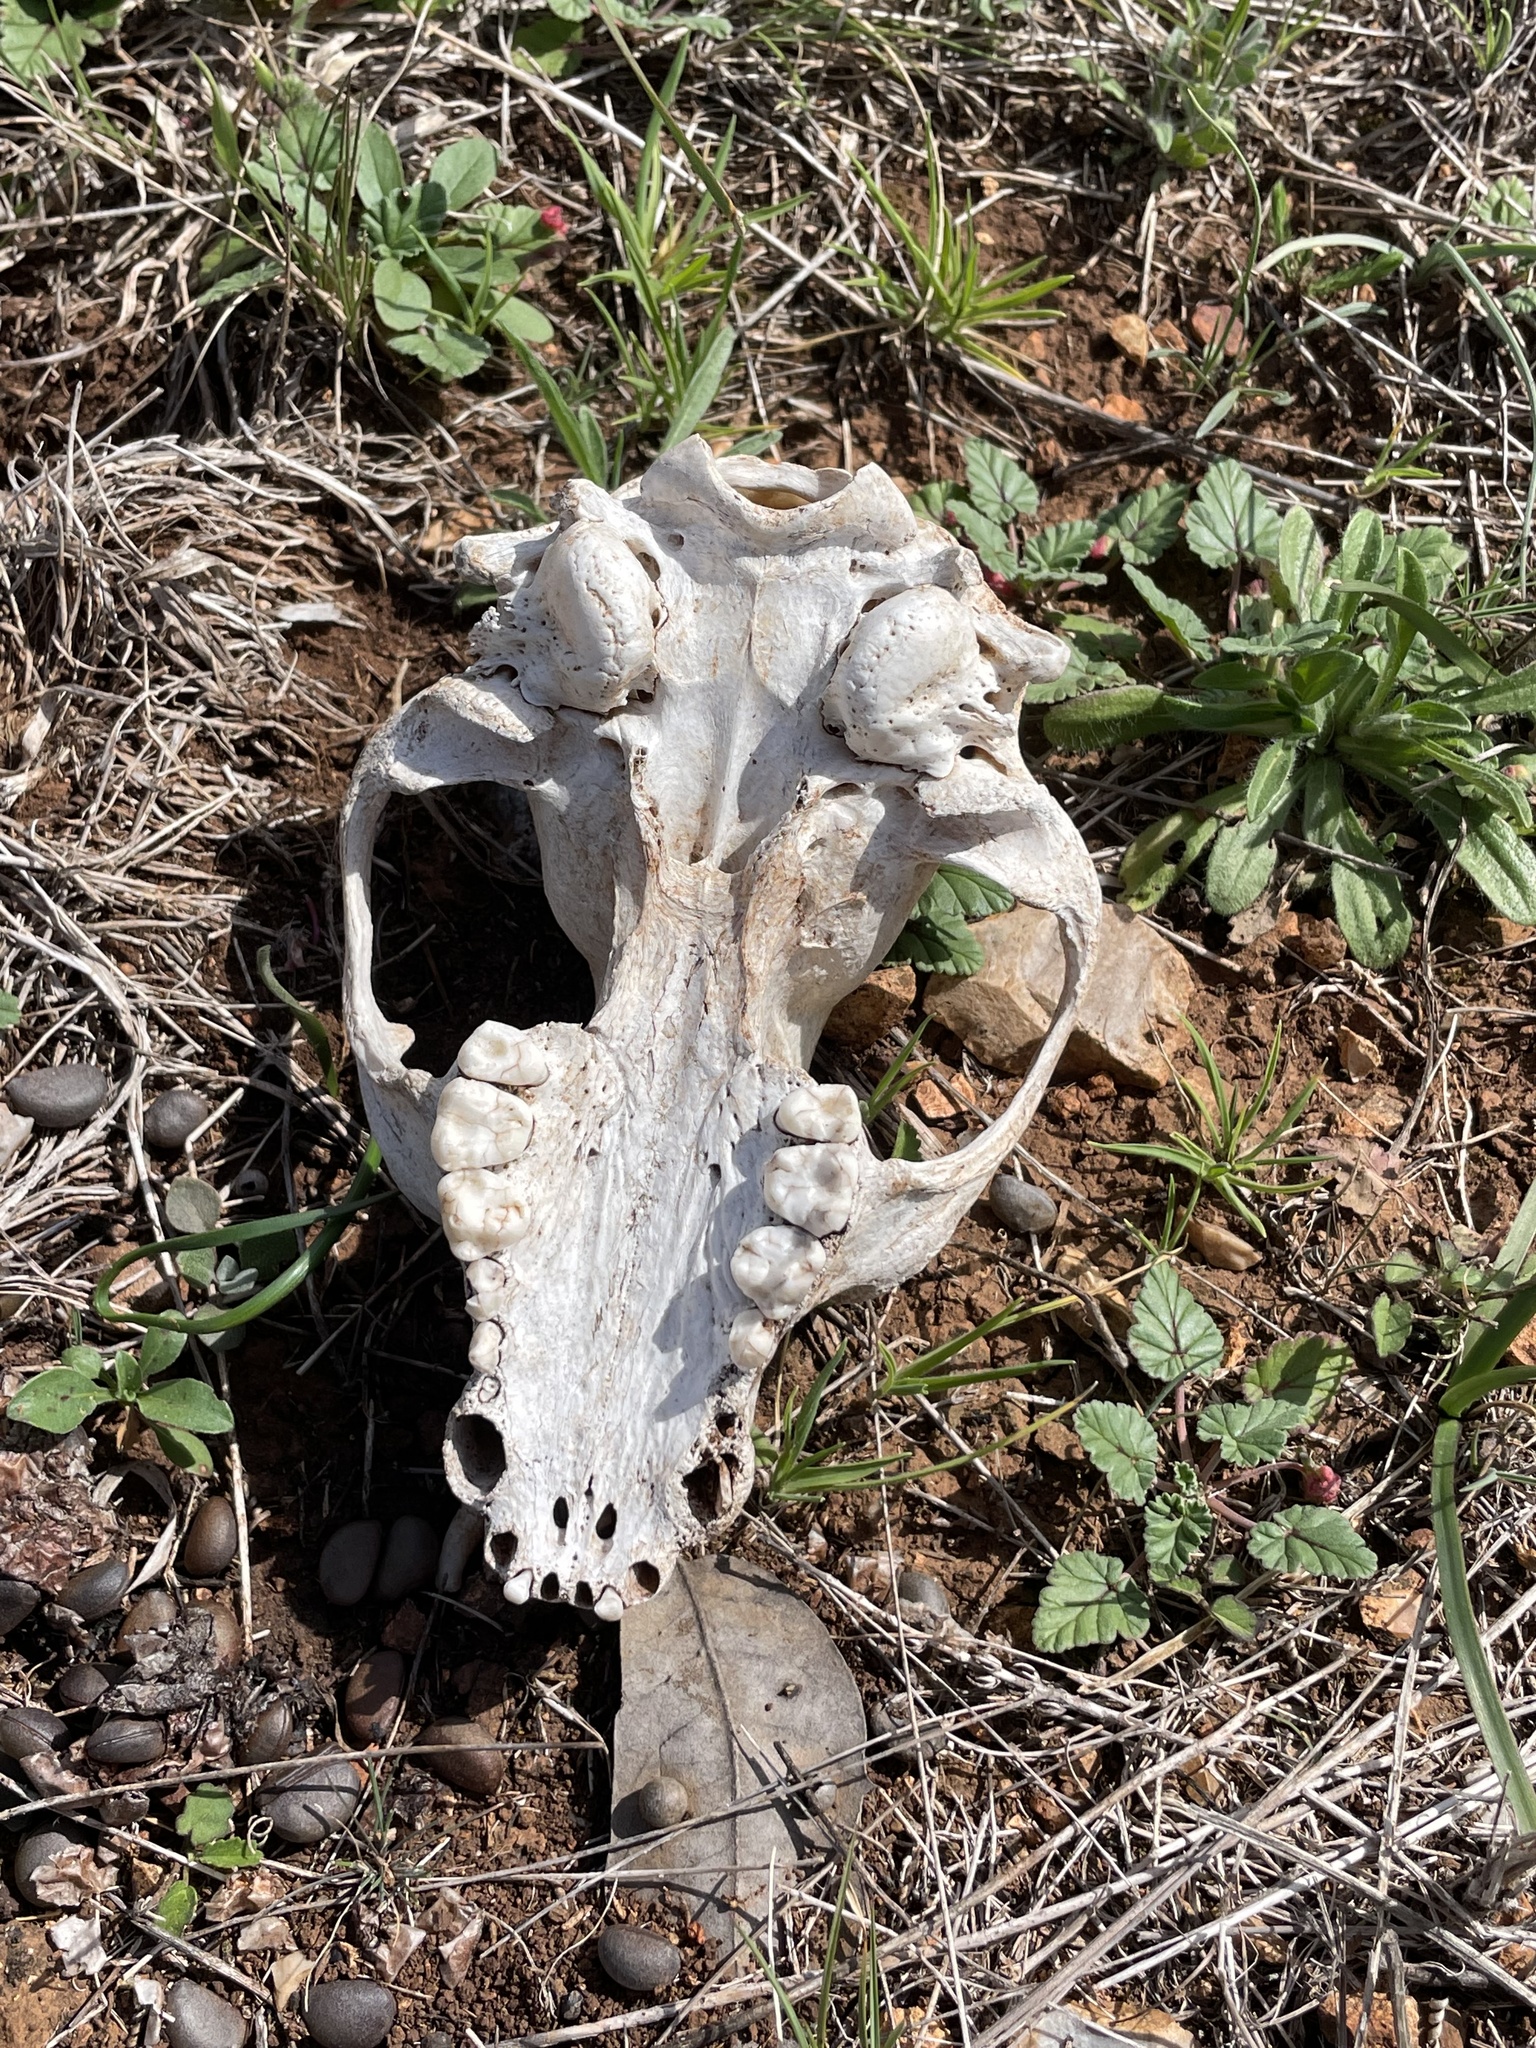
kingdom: Animalia
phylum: Chordata
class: Mammalia
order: Carnivora
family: Procyonidae
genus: Procyon
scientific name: Procyon lotor
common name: Raccoon
